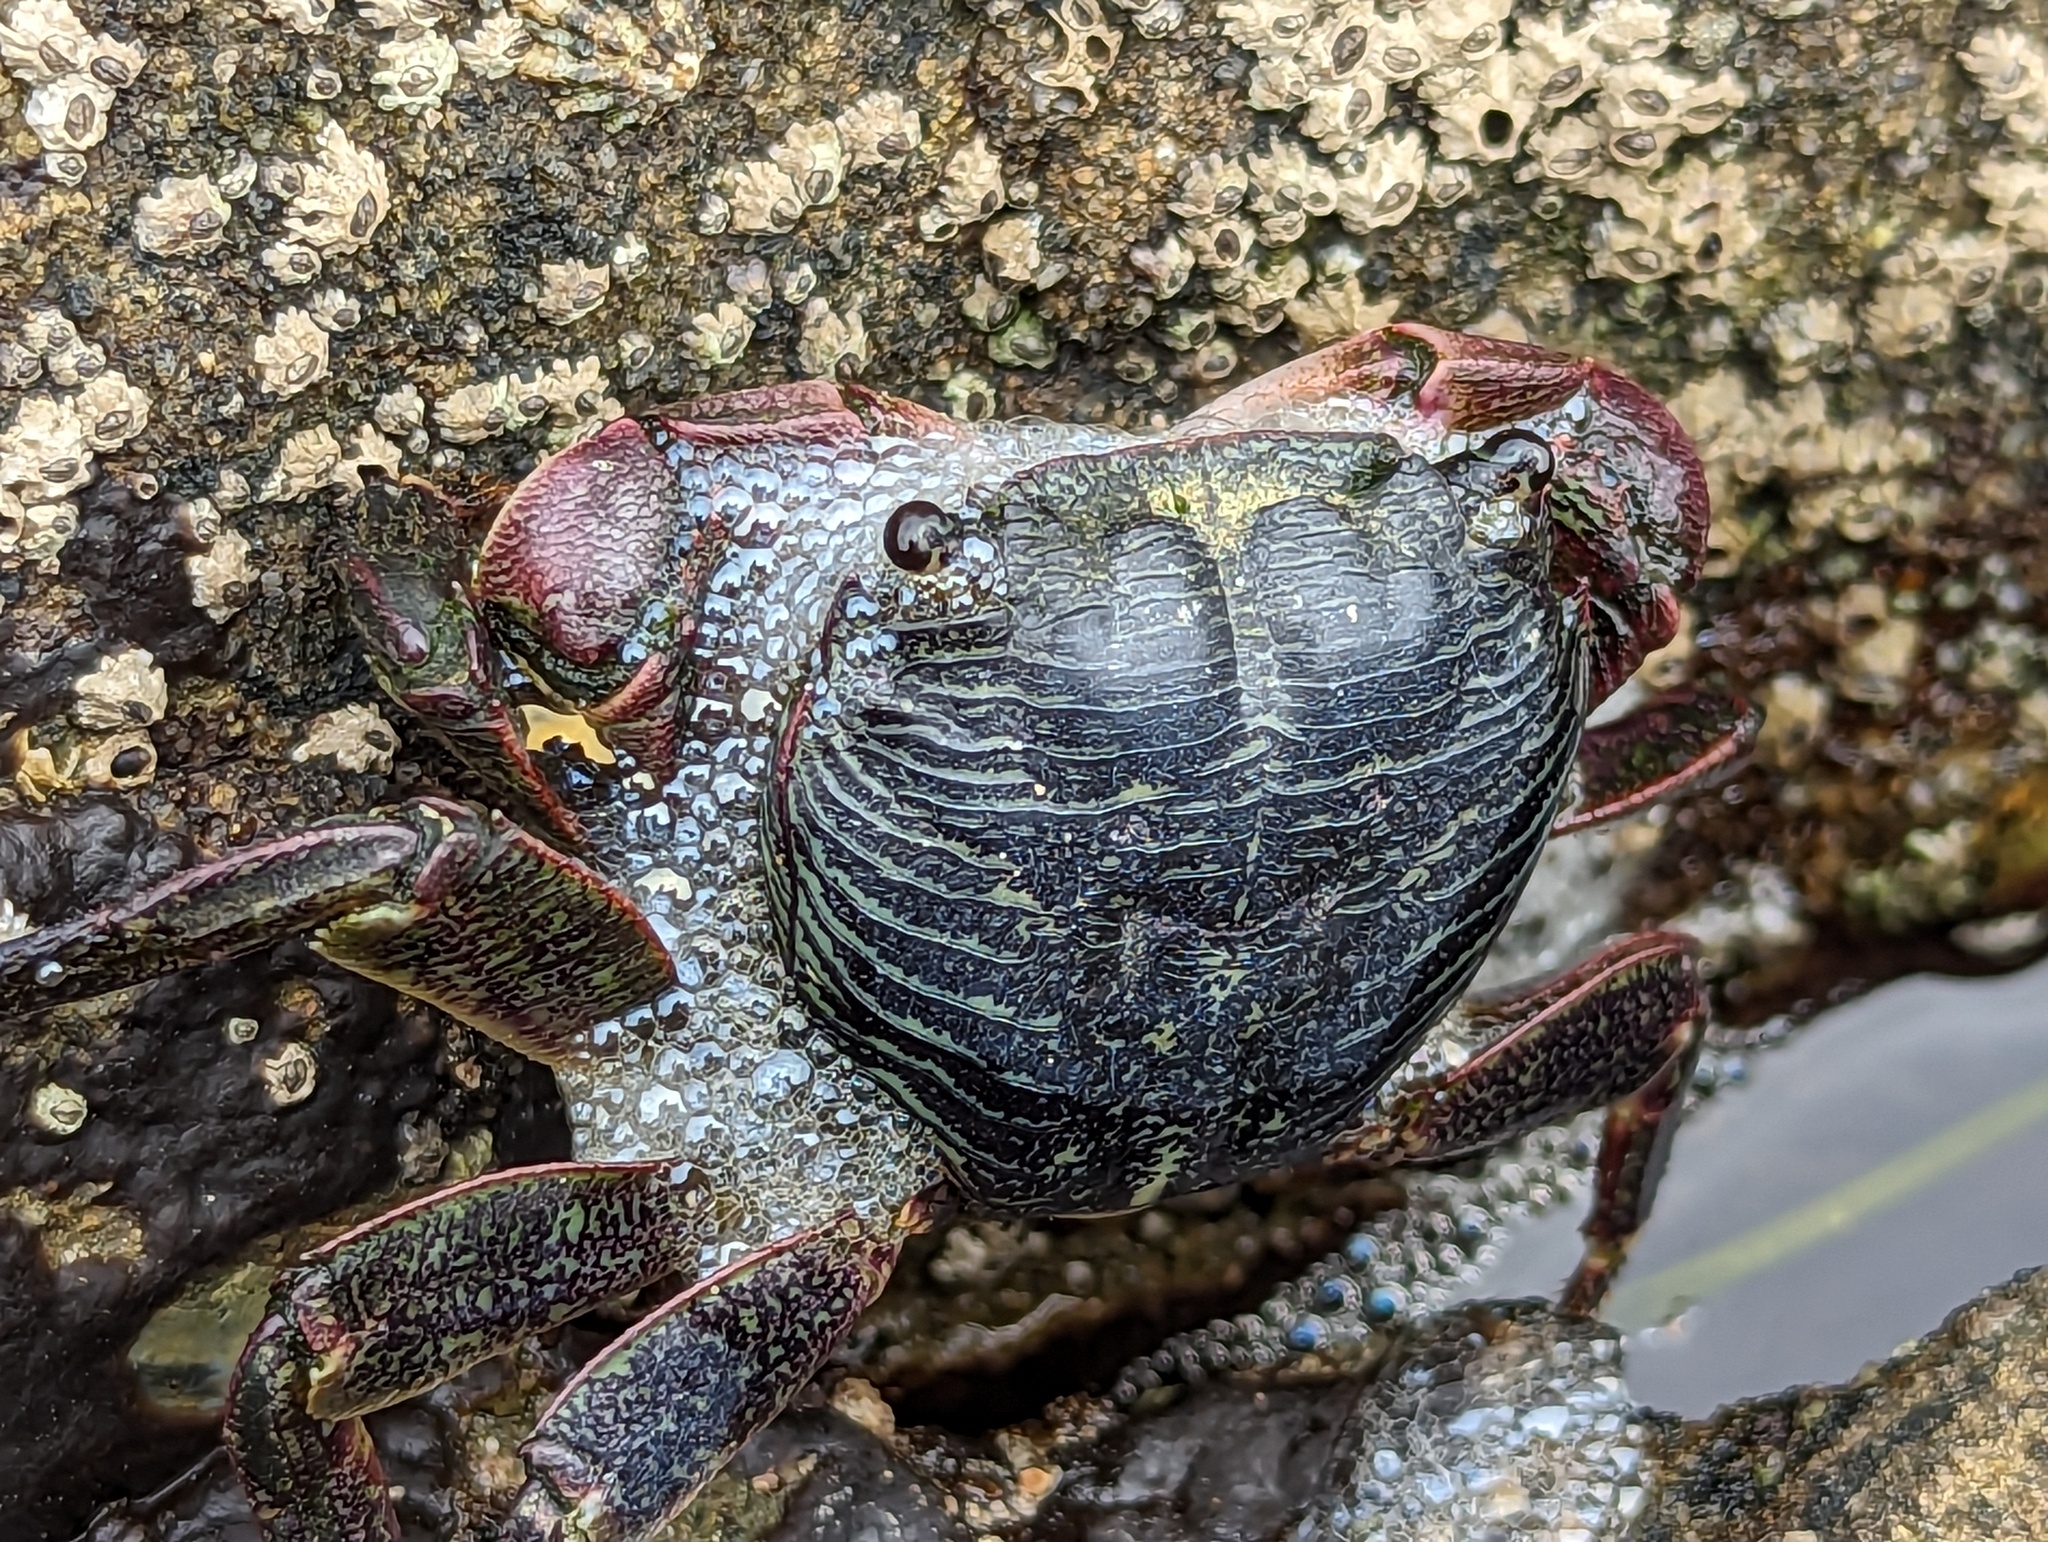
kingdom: Animalia
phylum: Arthropoda
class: Malacostraca
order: Decapoda
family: Grapsidae
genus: Pachygrapsus
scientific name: Pachygrapsus crassipes
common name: Striped shore crab
